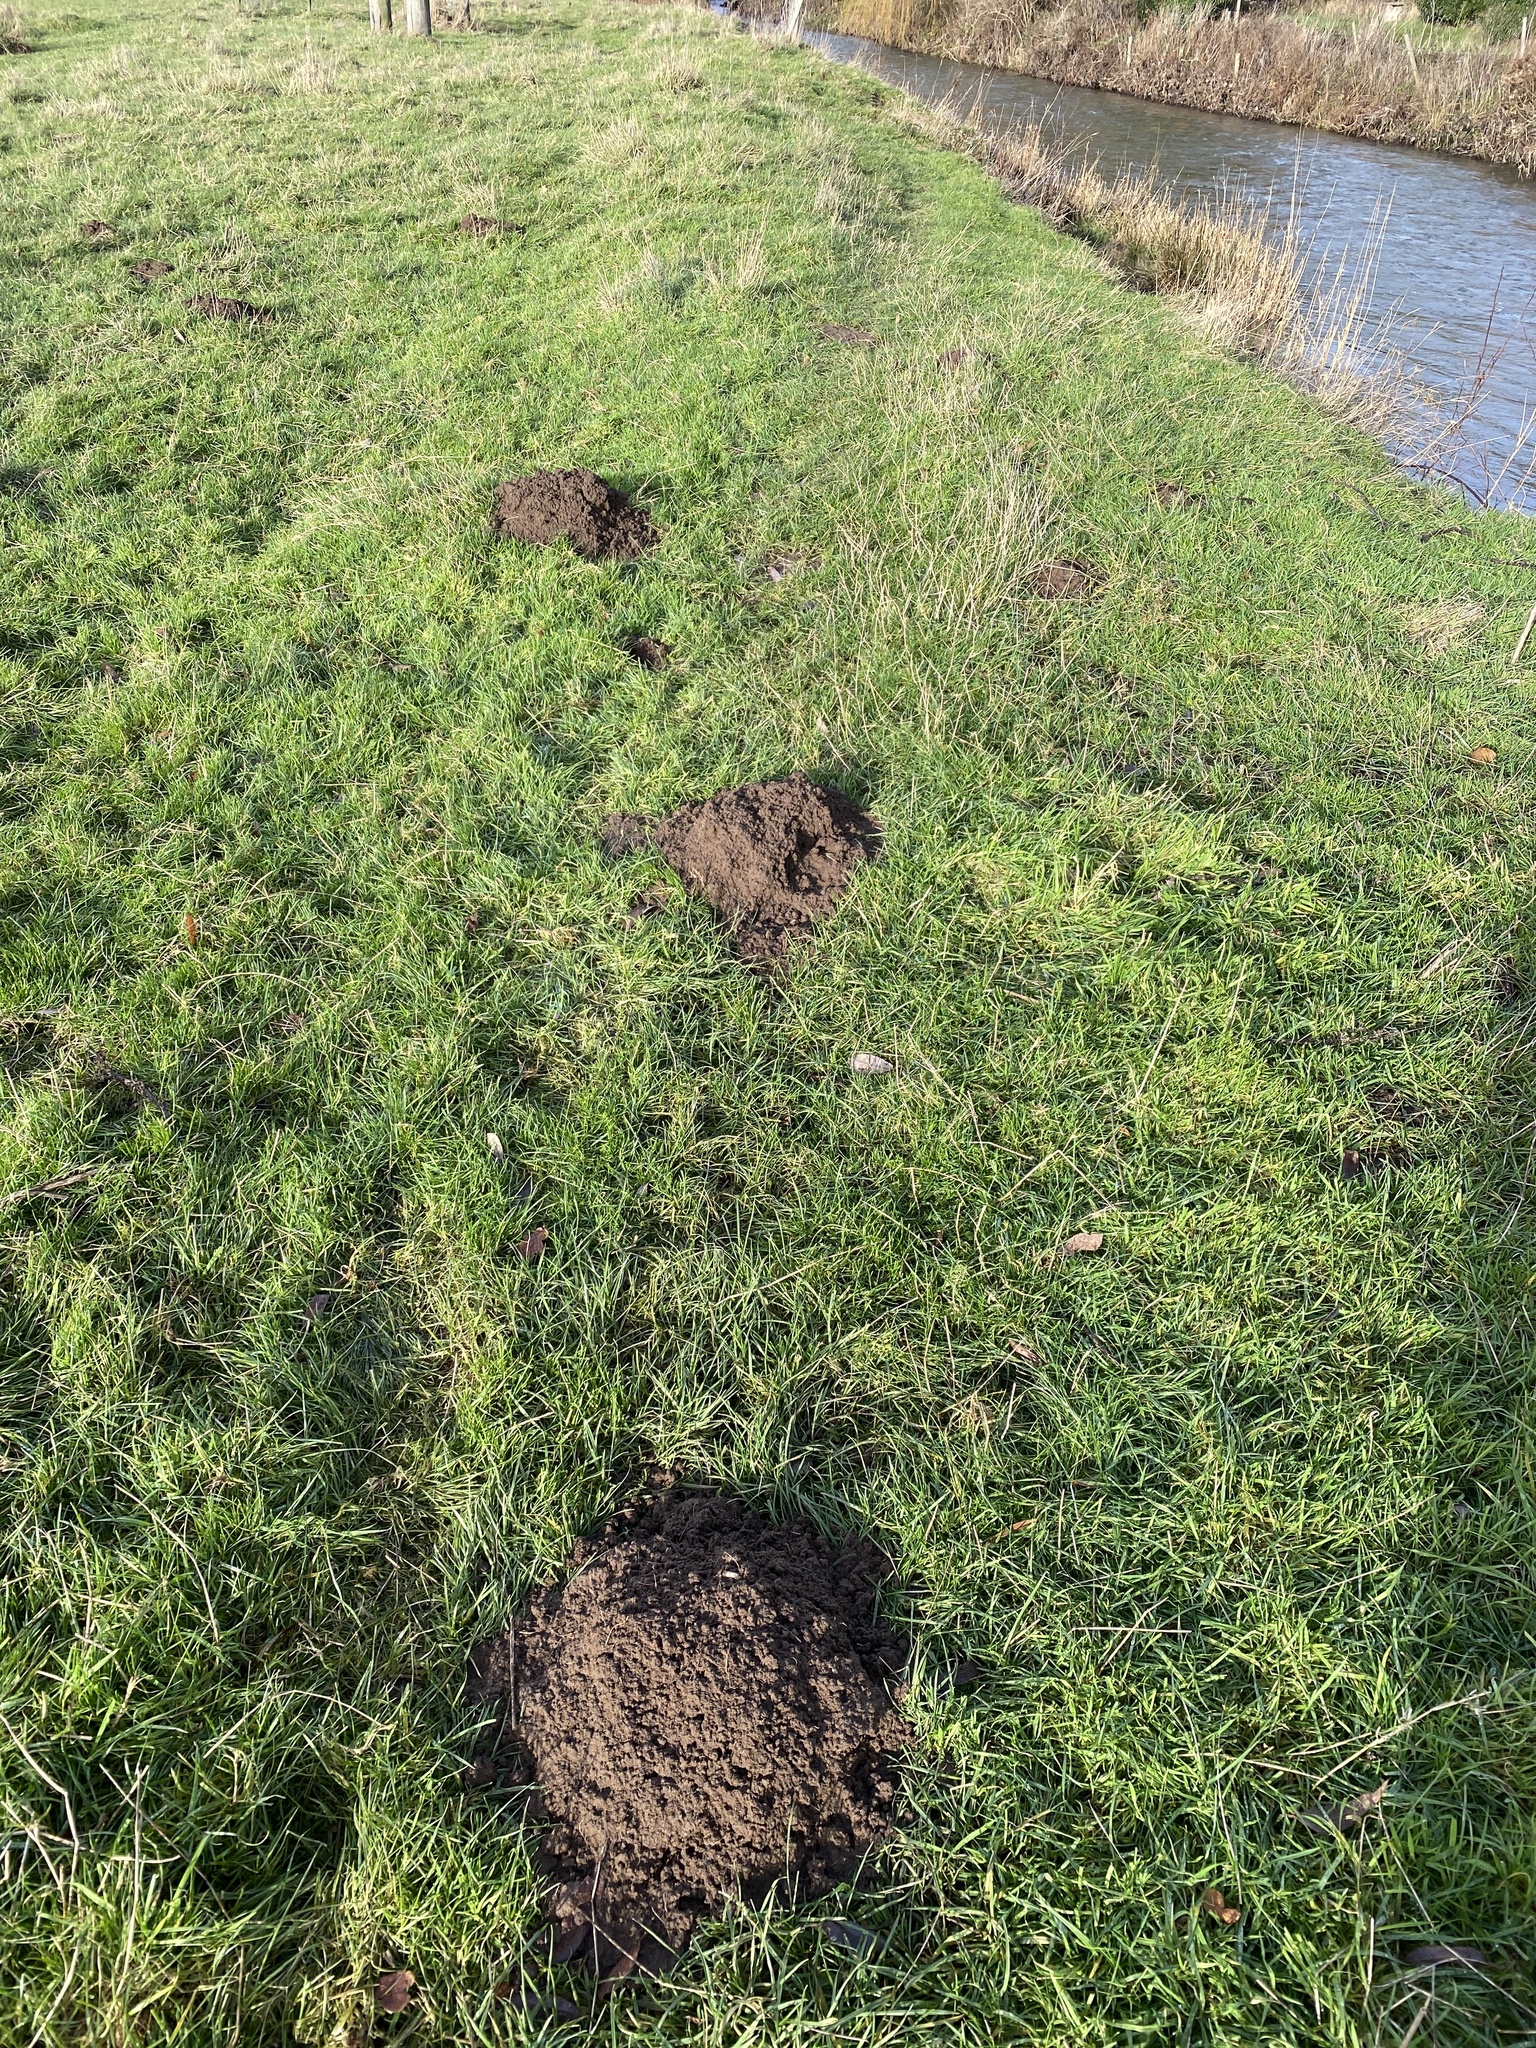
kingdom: Animalia
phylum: Chordata
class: Mammalia
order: Soricomorpha
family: Talpidae
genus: Talpa
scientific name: Talpa europaea
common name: European mole
